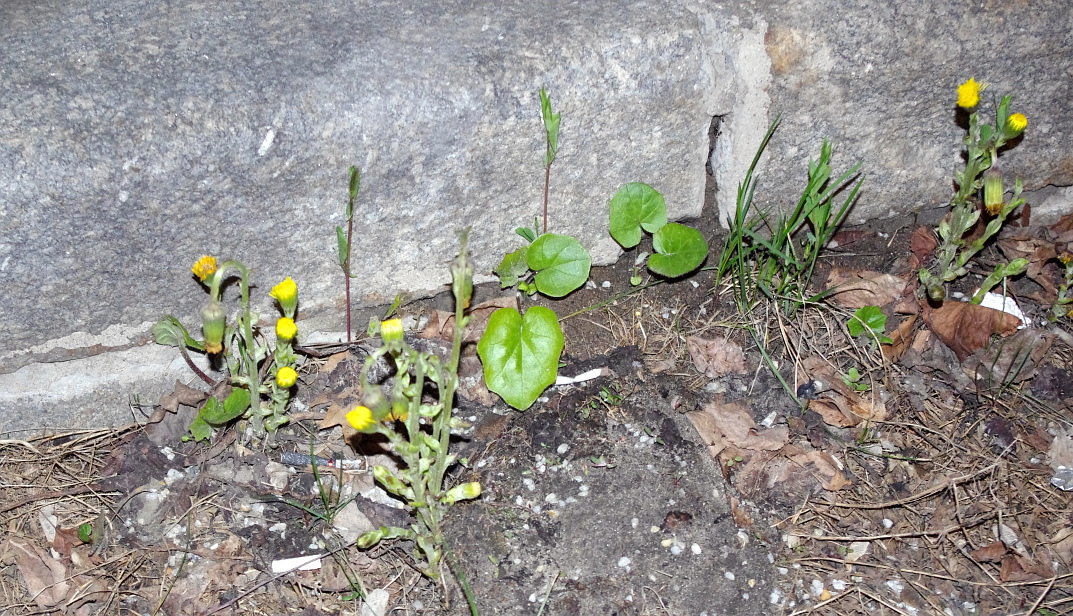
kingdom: Plantae
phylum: Tracheophyta
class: Magnoliopsida
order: Asterales
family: Asteraceae
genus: Tussilago
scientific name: Tussilago farfara
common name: Coltsfoot
